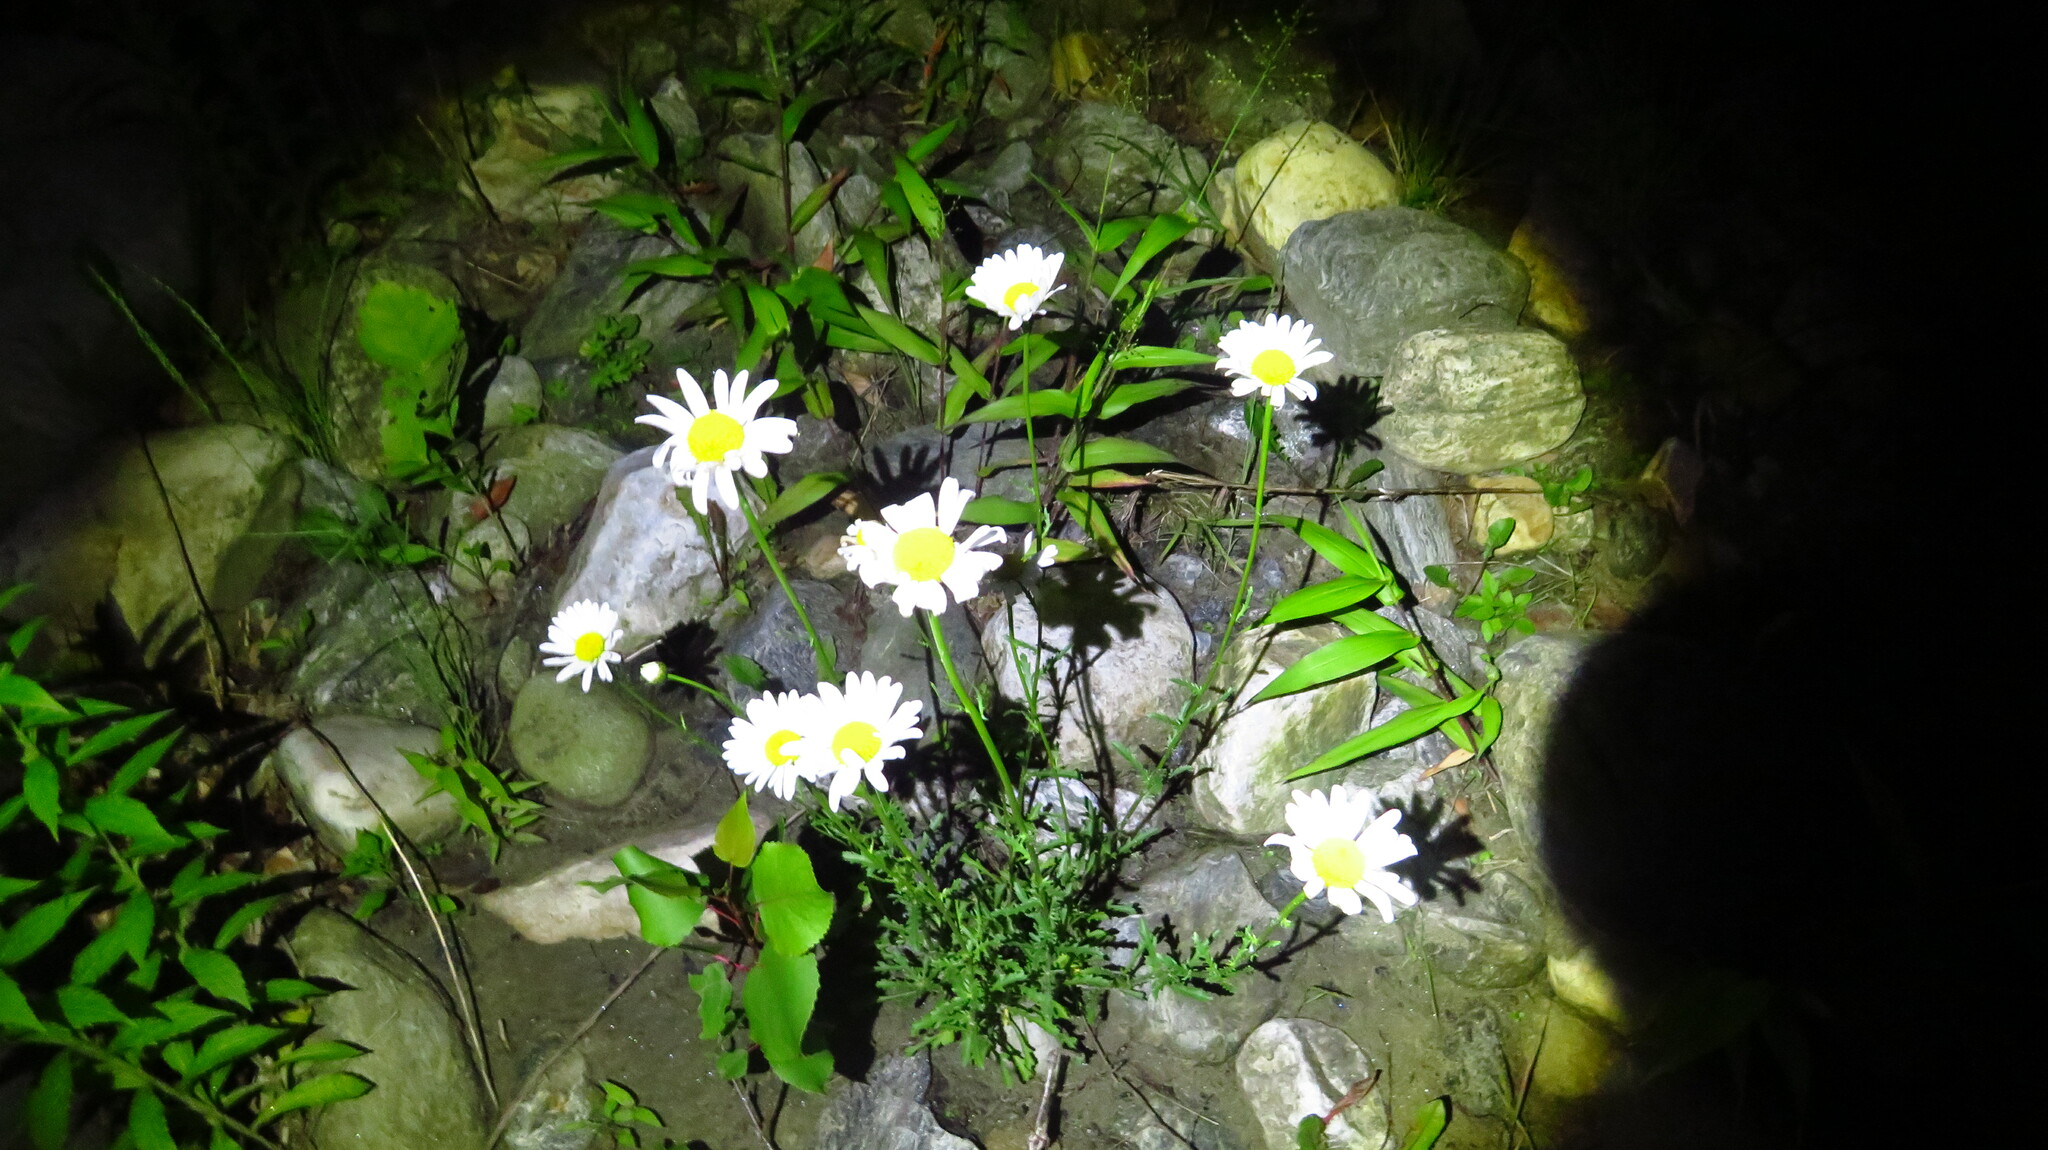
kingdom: Plantae
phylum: Tracheophyta
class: Magnoliopsida
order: Asterales
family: Asteraceae
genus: Leucanthemum
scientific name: Leucanthemum vulgare
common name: Oxeye daisy
